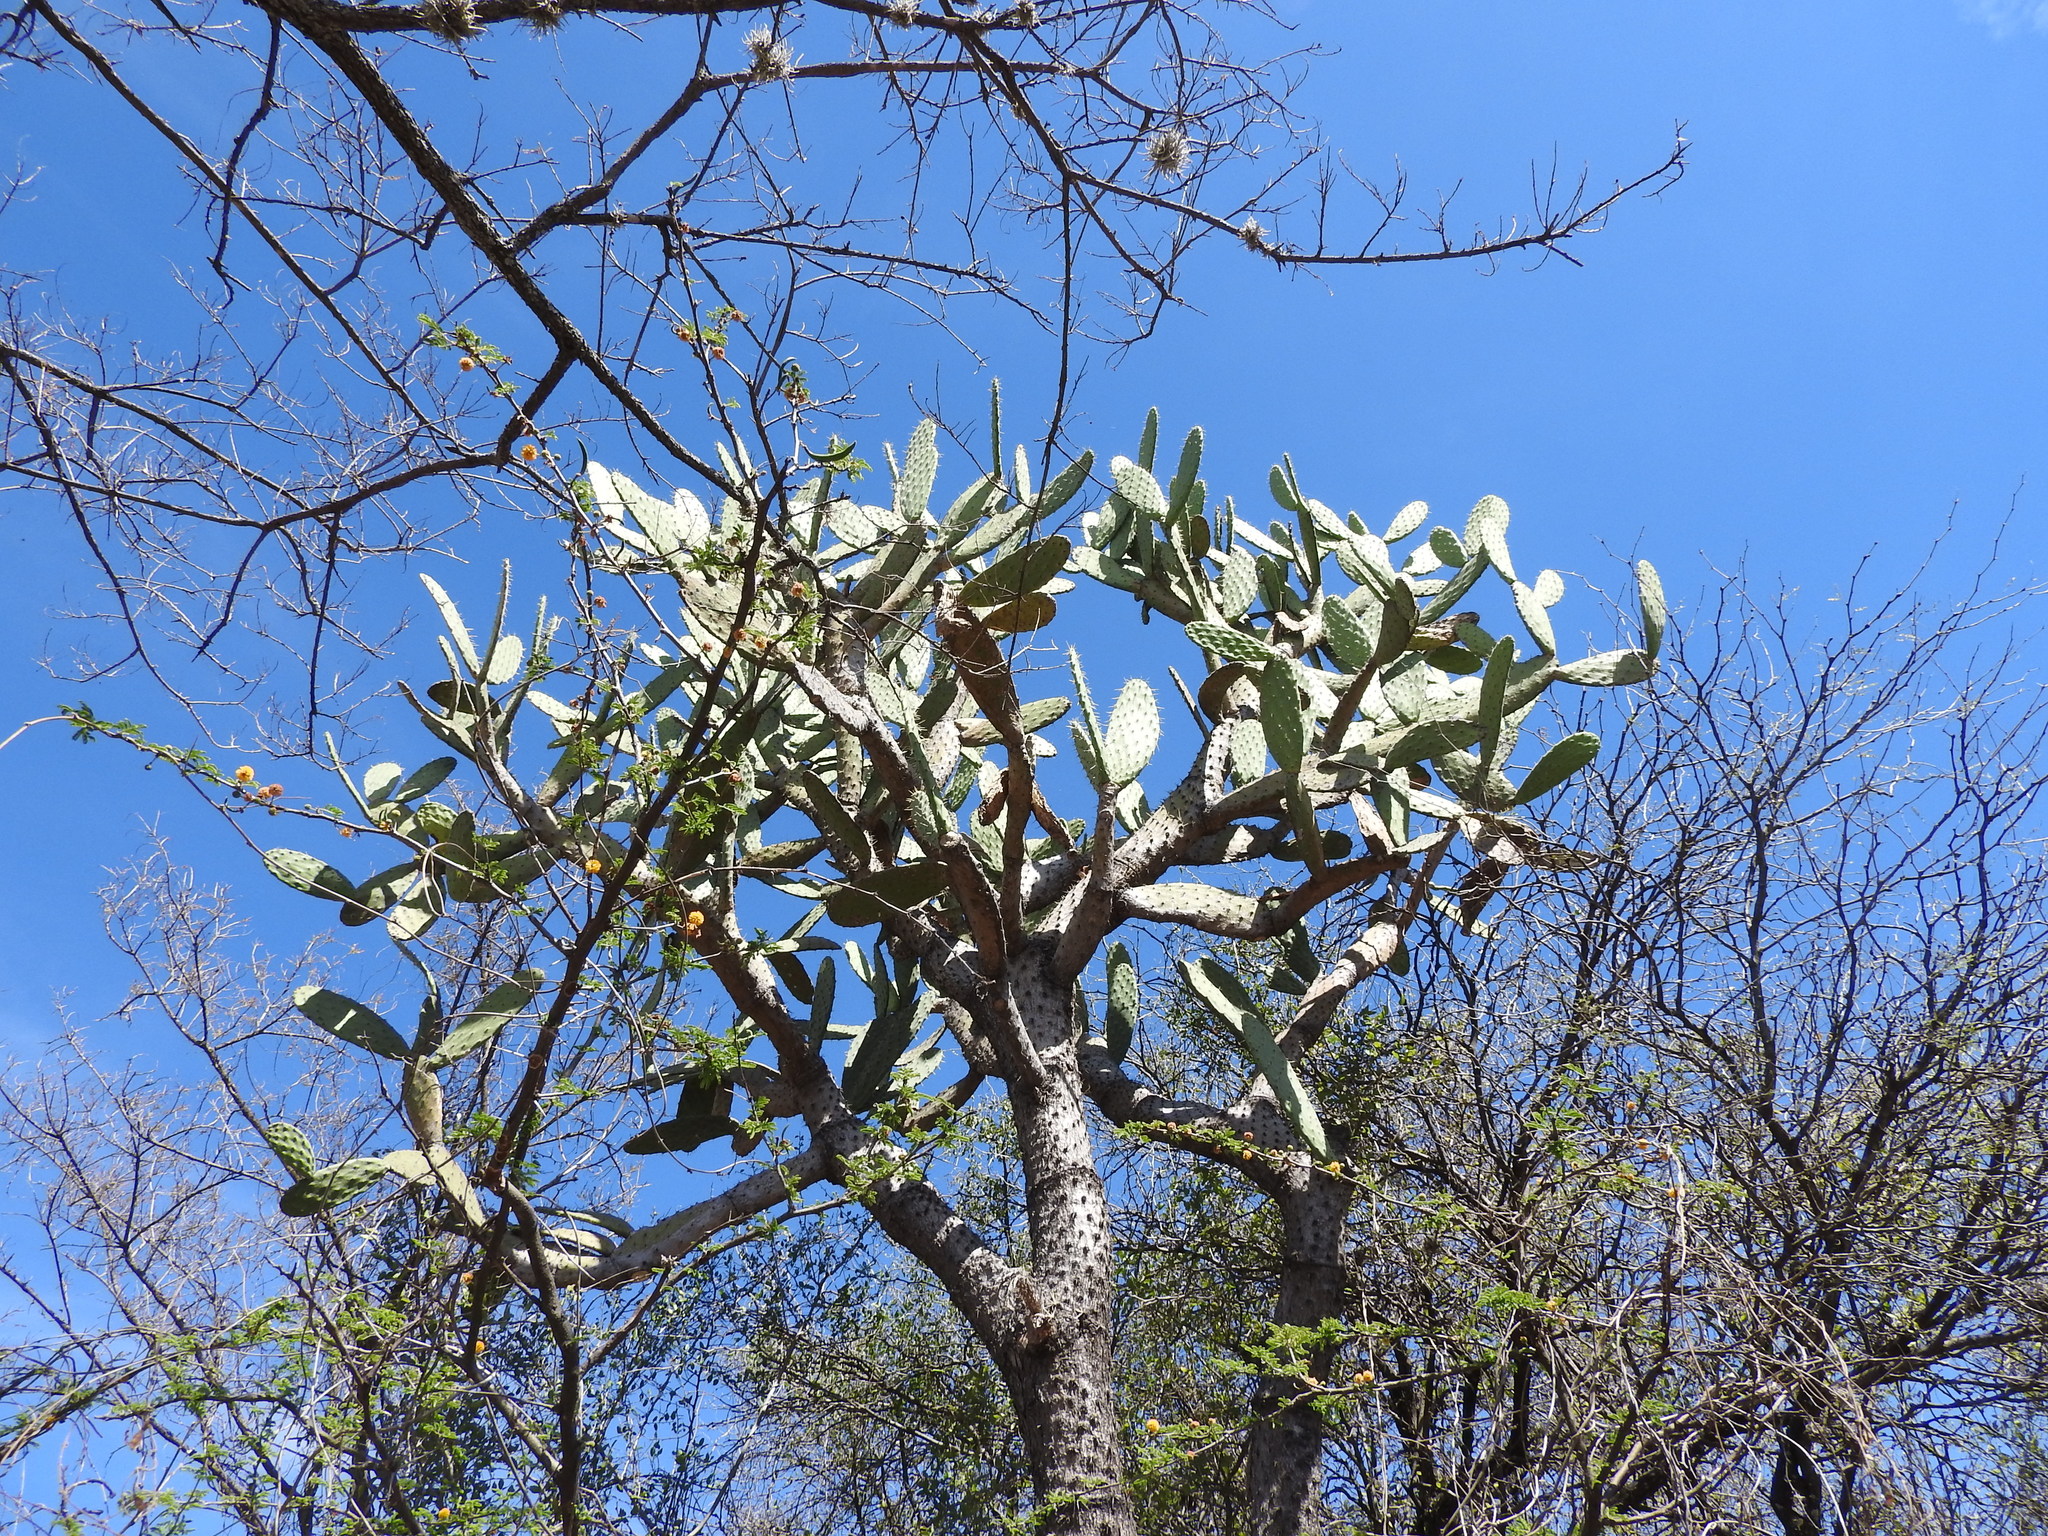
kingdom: Plantae
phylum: Tracheophyta
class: Magnoliopsida
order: Caryophyllales
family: Cactaceae
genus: Opuntia
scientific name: Opuntia jaliscana
